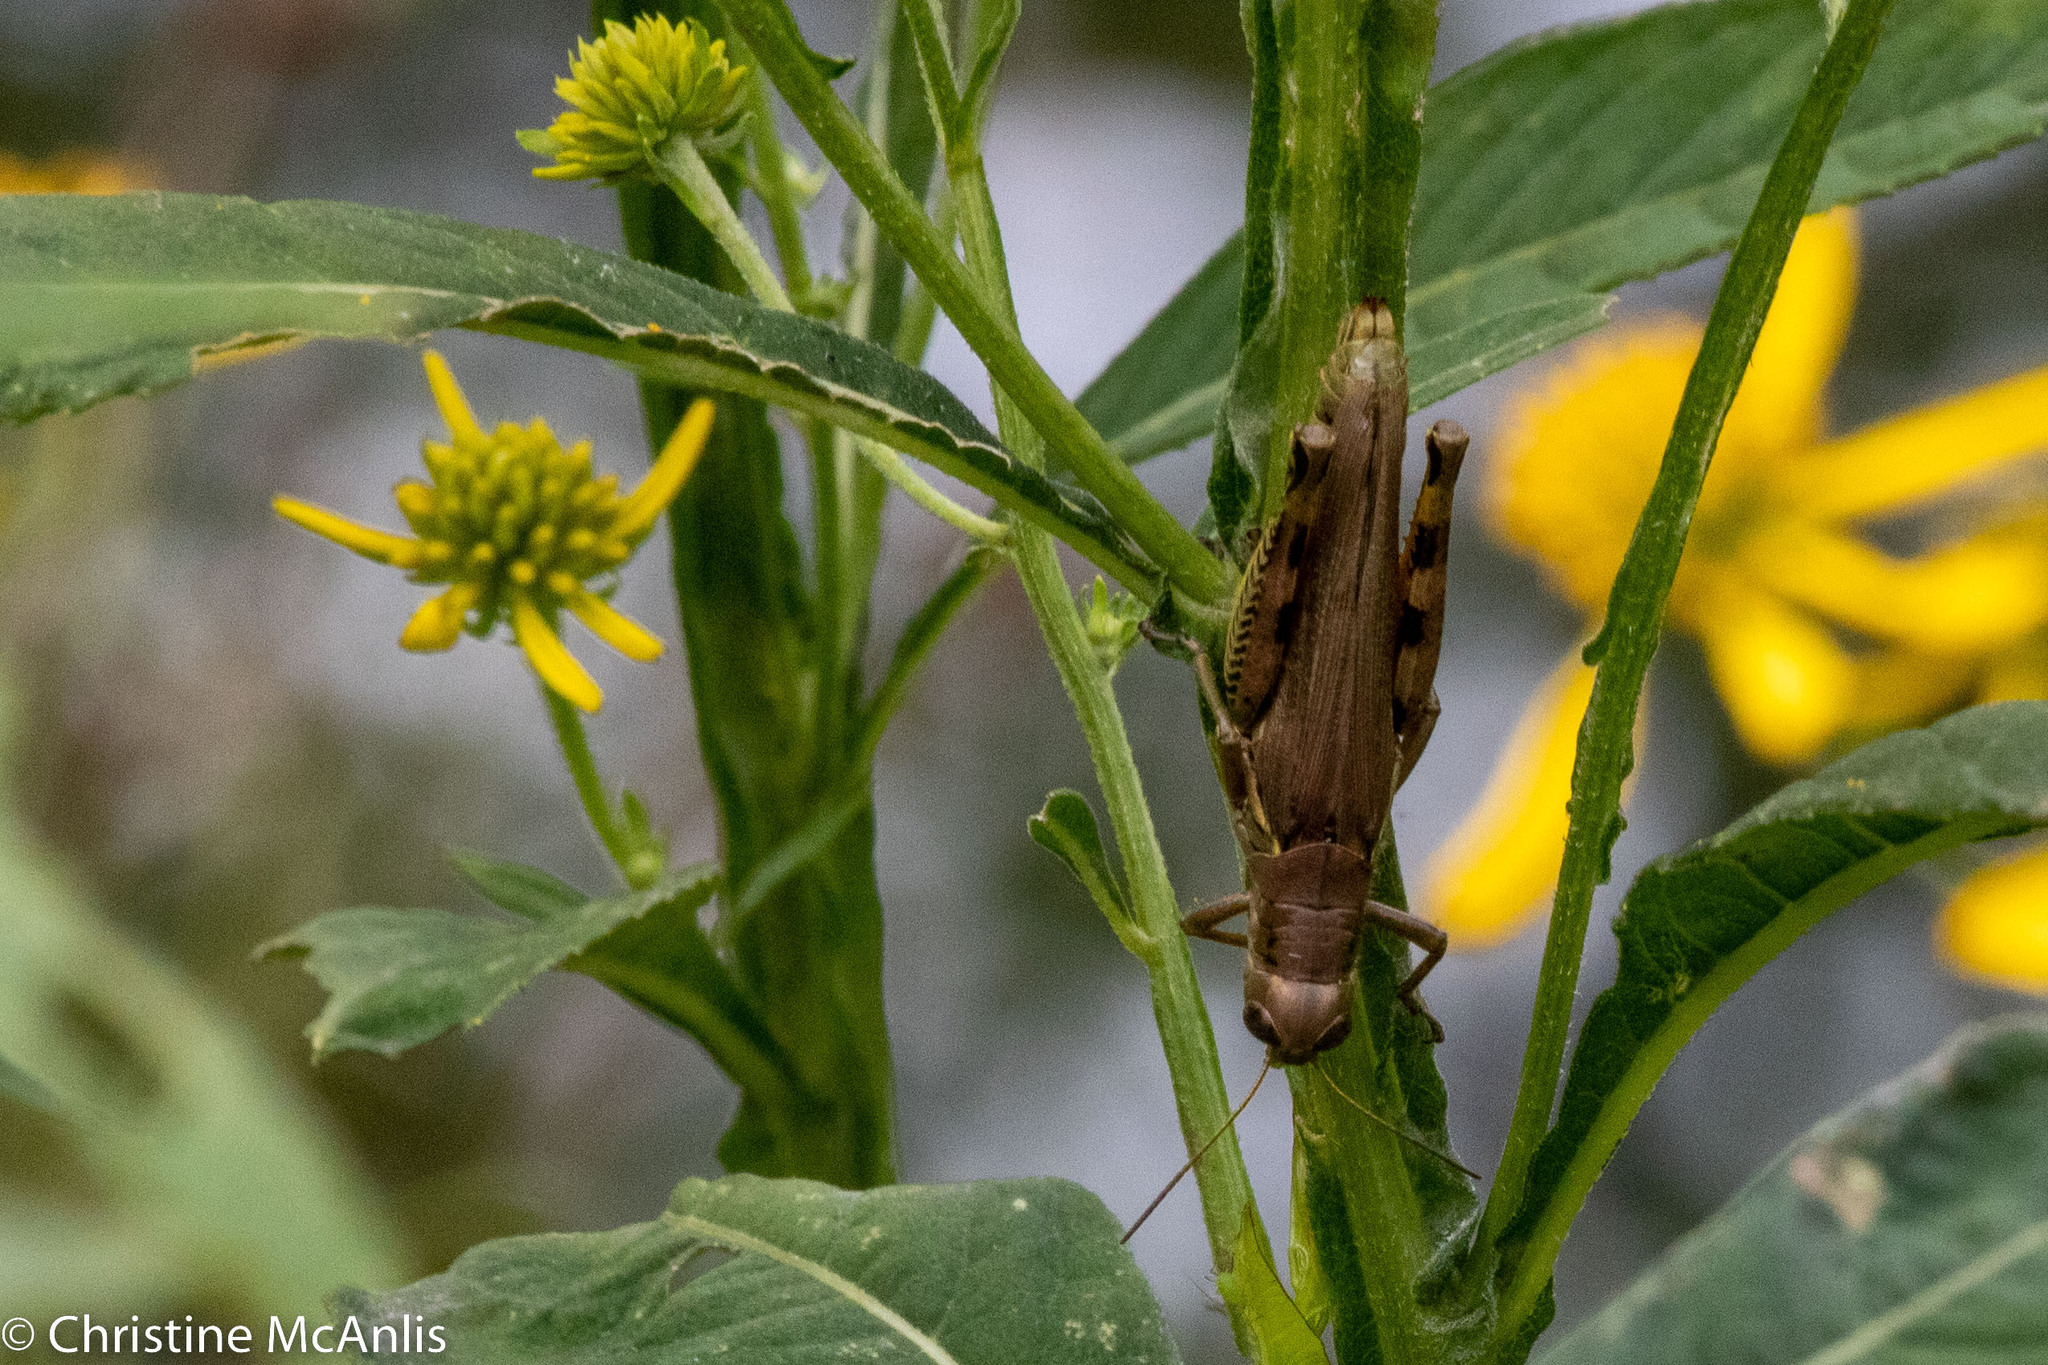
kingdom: Animalia
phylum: Arthropoda
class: Insecta
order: Orthoptera
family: Acrididae
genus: Melanoplus
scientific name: Melanoplus differentialis
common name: Differential grasshopper
